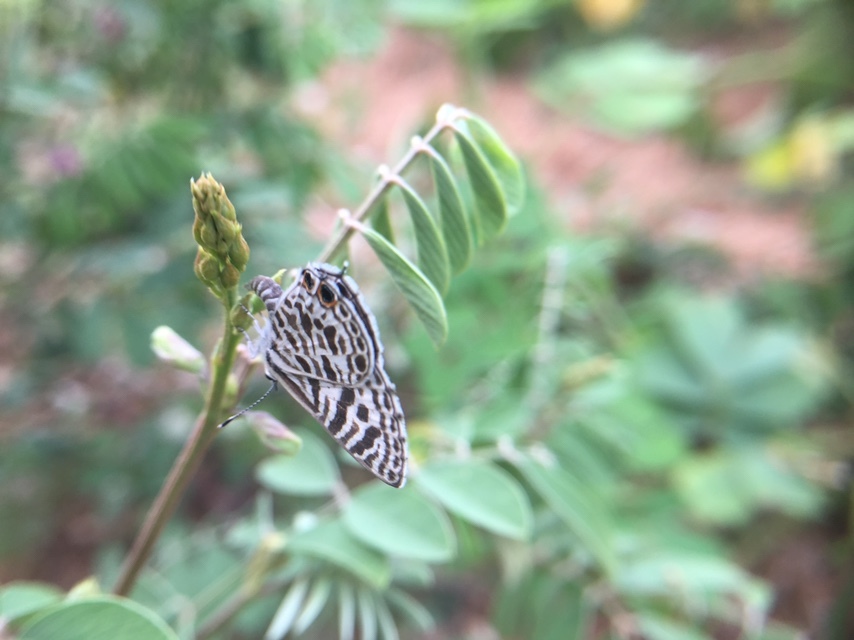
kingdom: Animalia
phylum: Arthropoda
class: Insecta
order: Lepidoptera
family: Lycaenidae
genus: Leptotes
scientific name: Leptotes plinius
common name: Zebra blue
